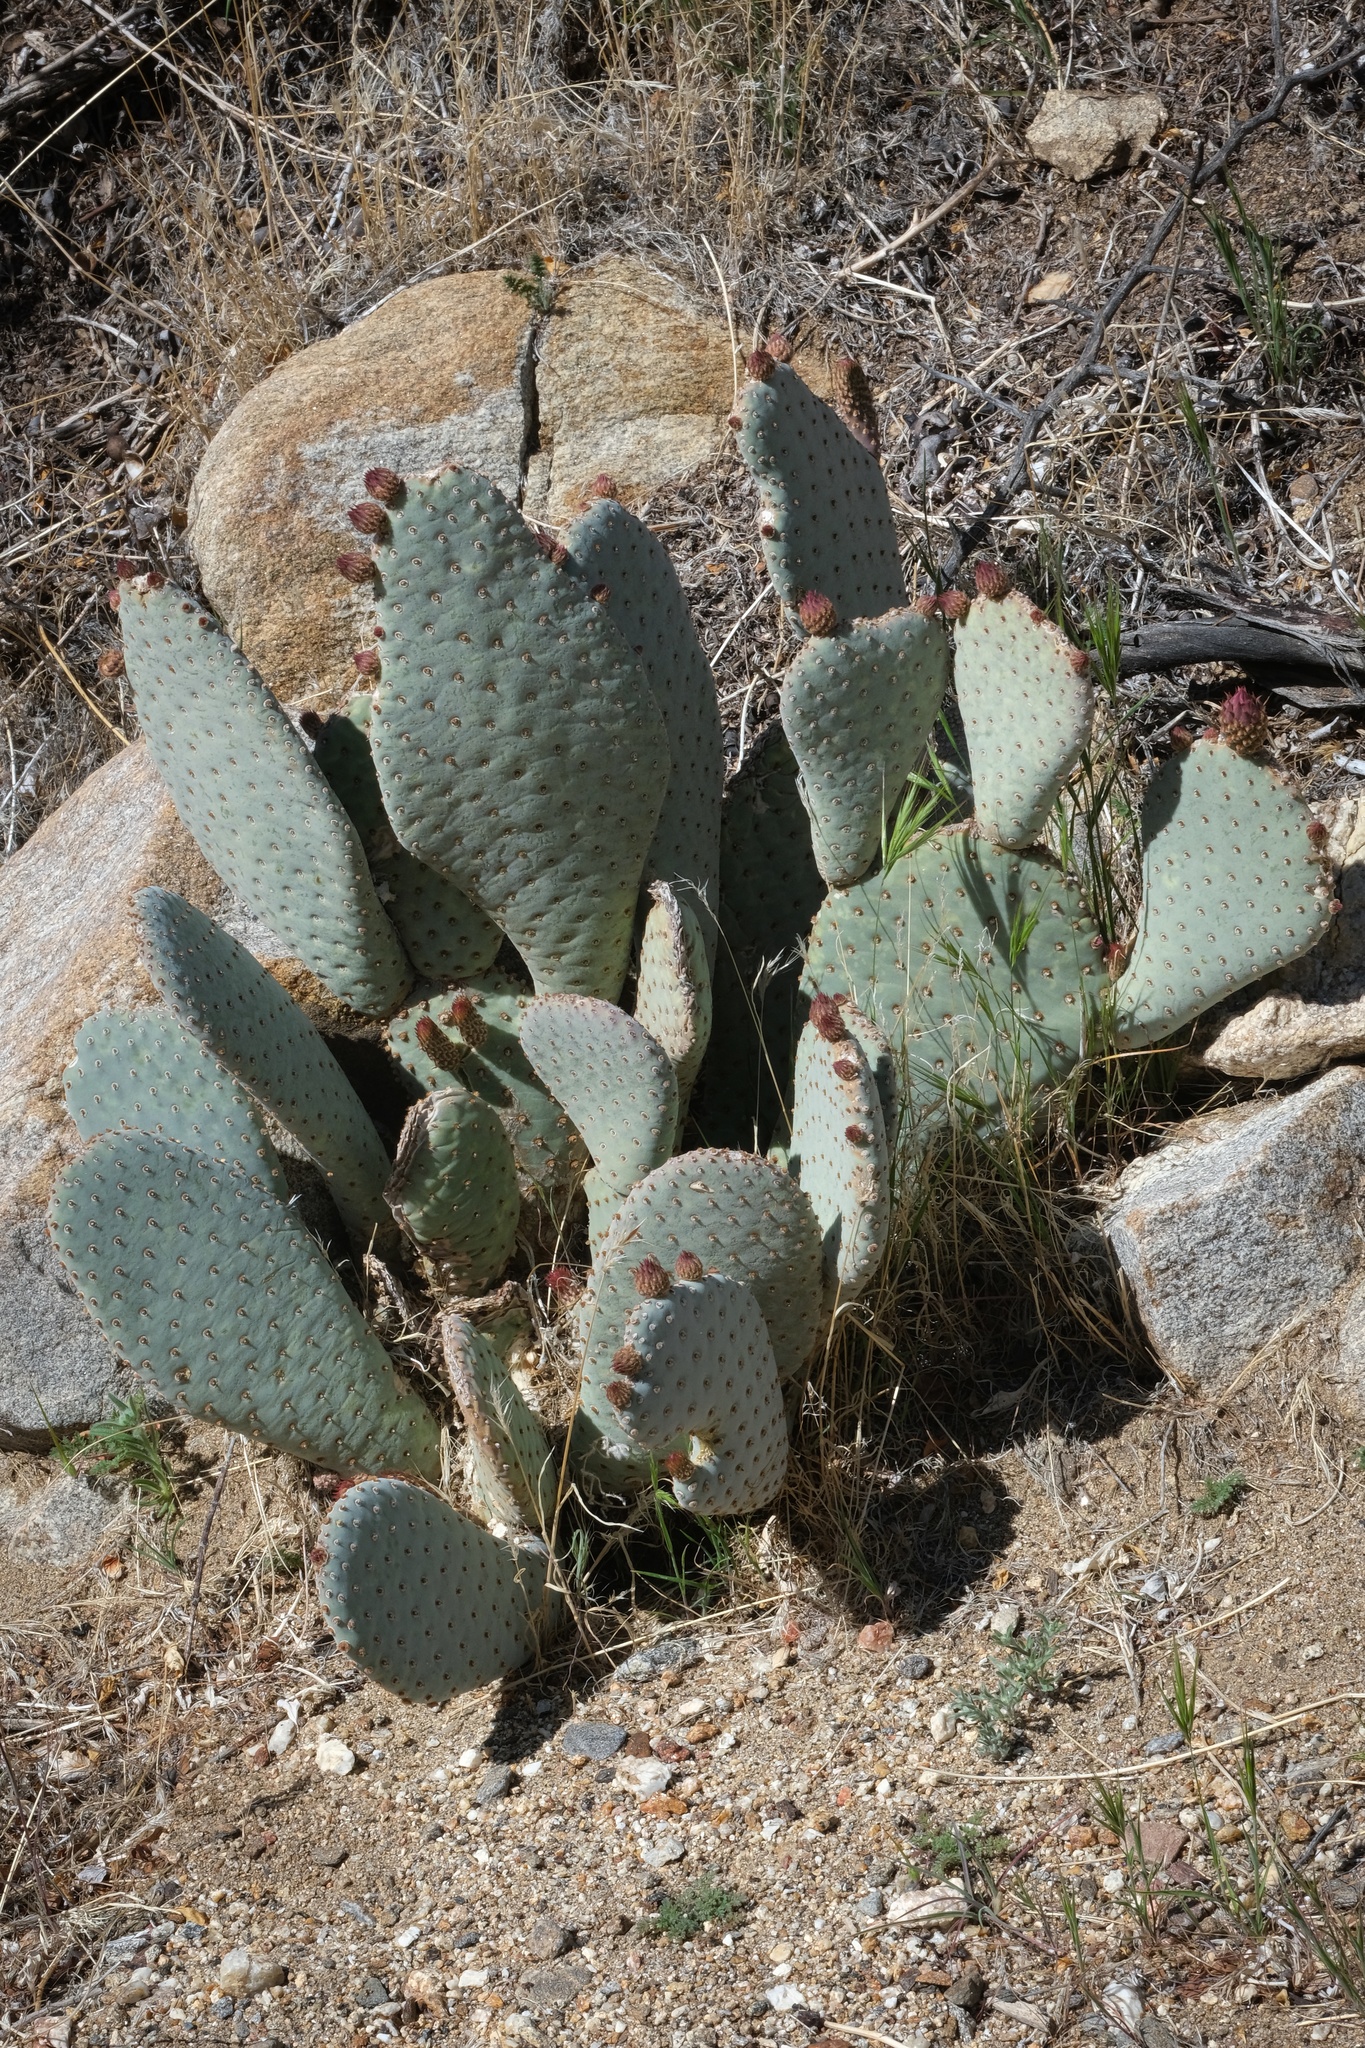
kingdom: Plantae
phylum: Tracheophyta
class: Magnoliopsida
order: Caryophyllales
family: Cactaceae
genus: Opuntia
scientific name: Opuntia basilaris
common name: Beavertail prickly-pear
